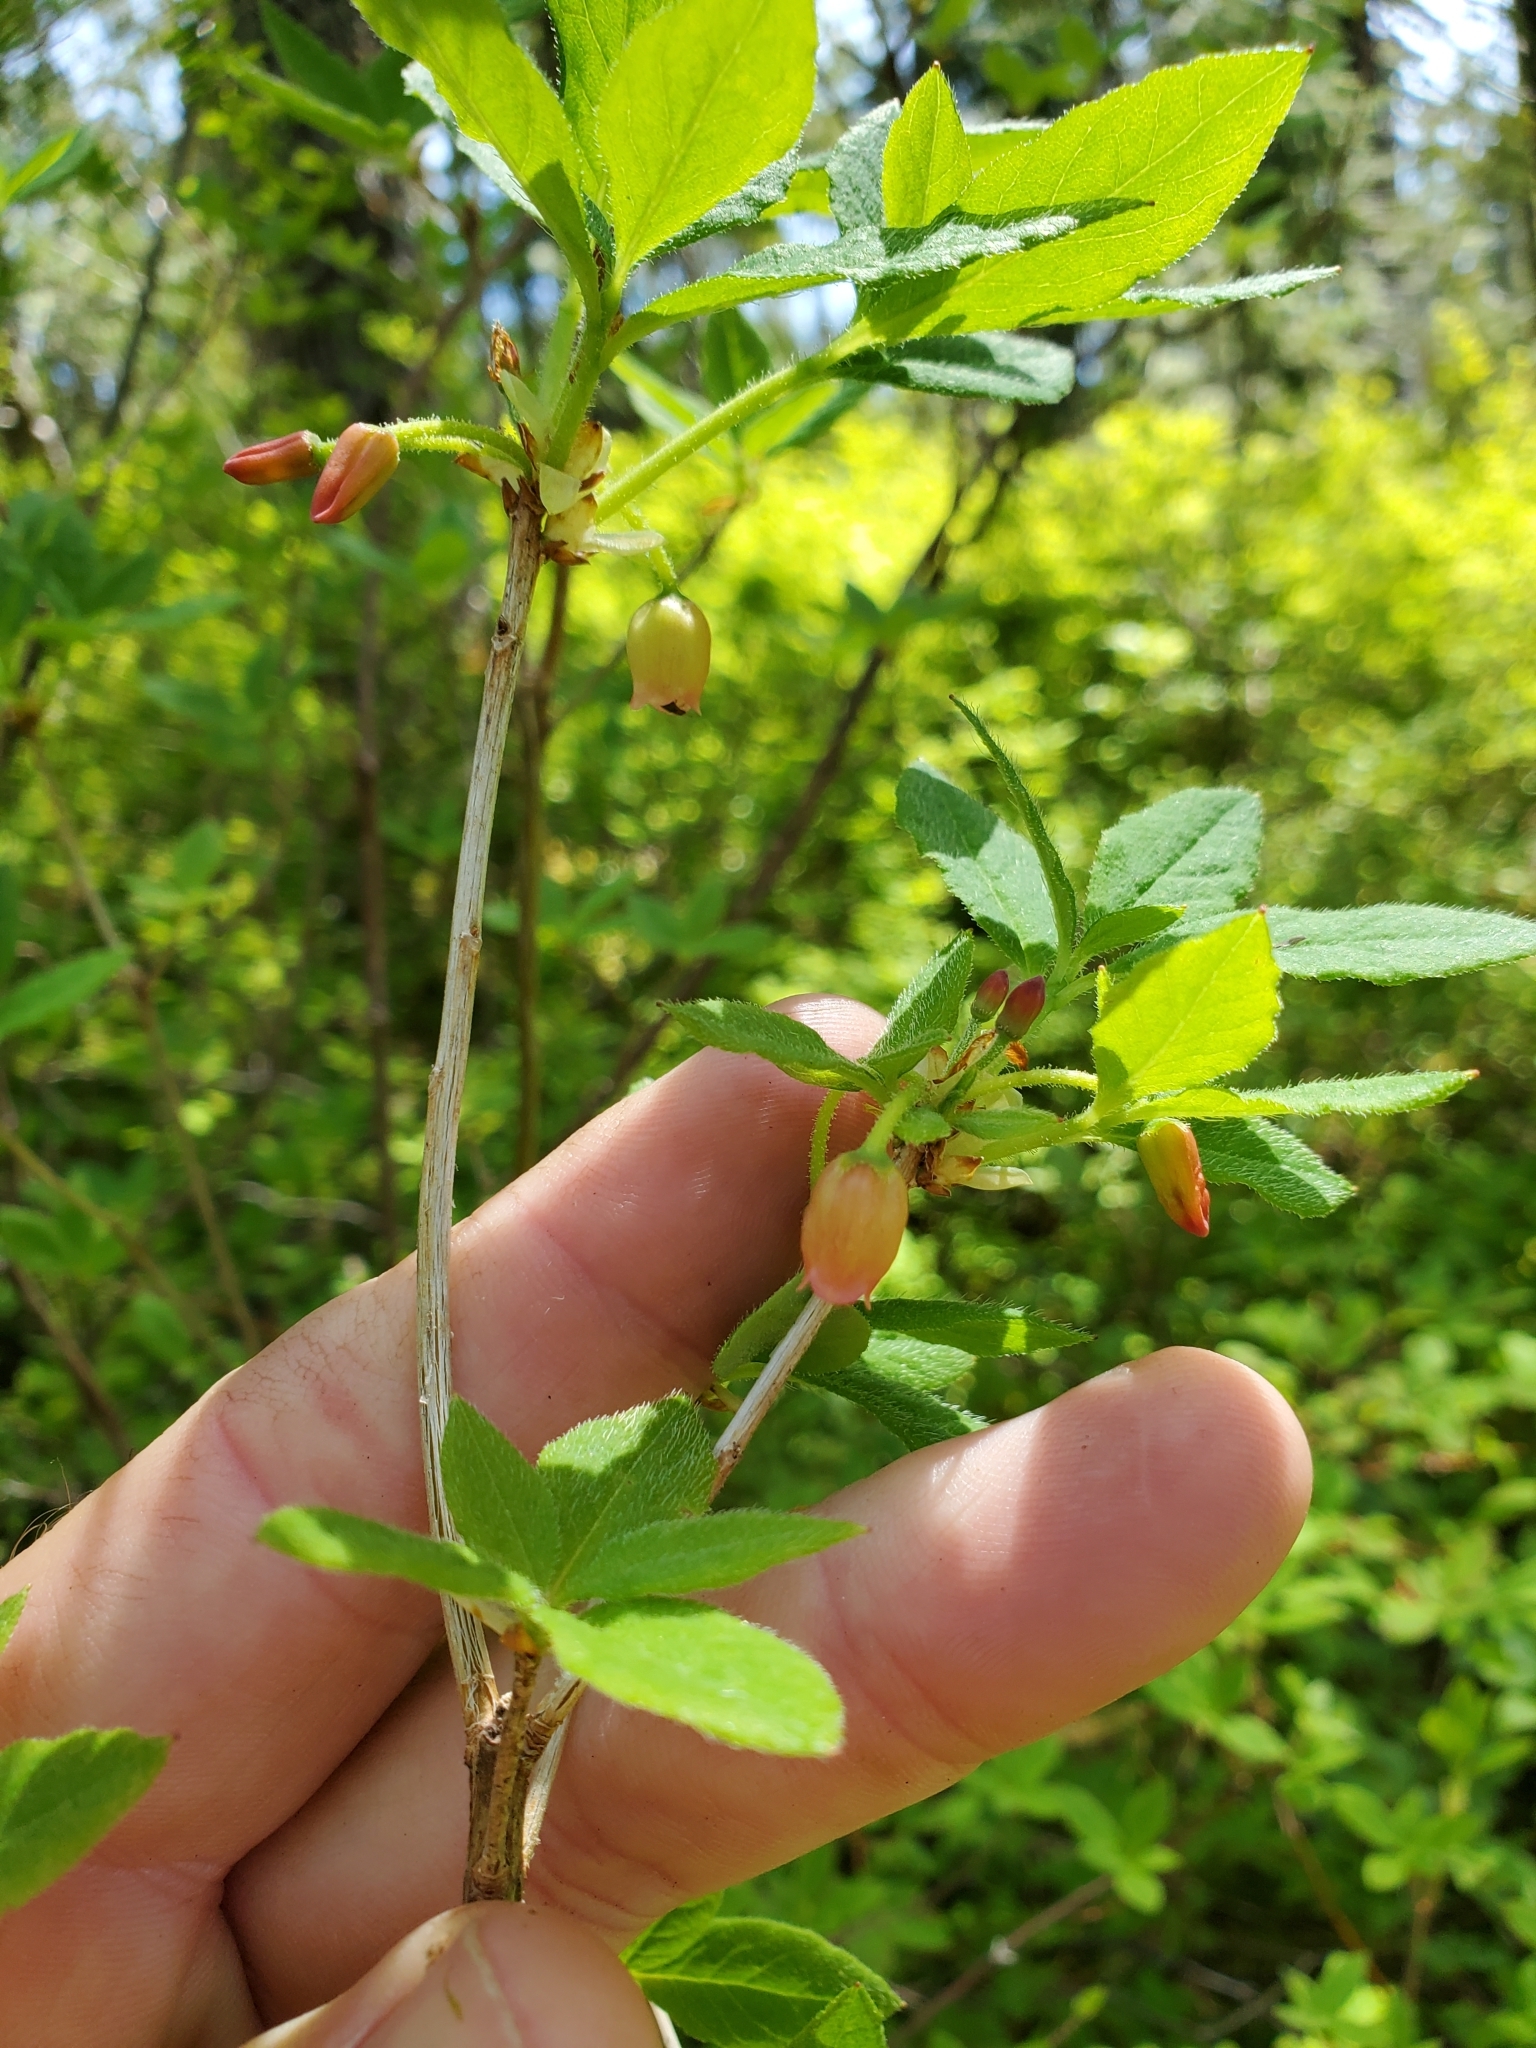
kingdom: Plantae
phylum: Tracheophyta
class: Magnoliopsida
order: Ericales
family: Ericaceae
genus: Rhododendron
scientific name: Rhododendron menziesii
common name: Pacific menziesia
